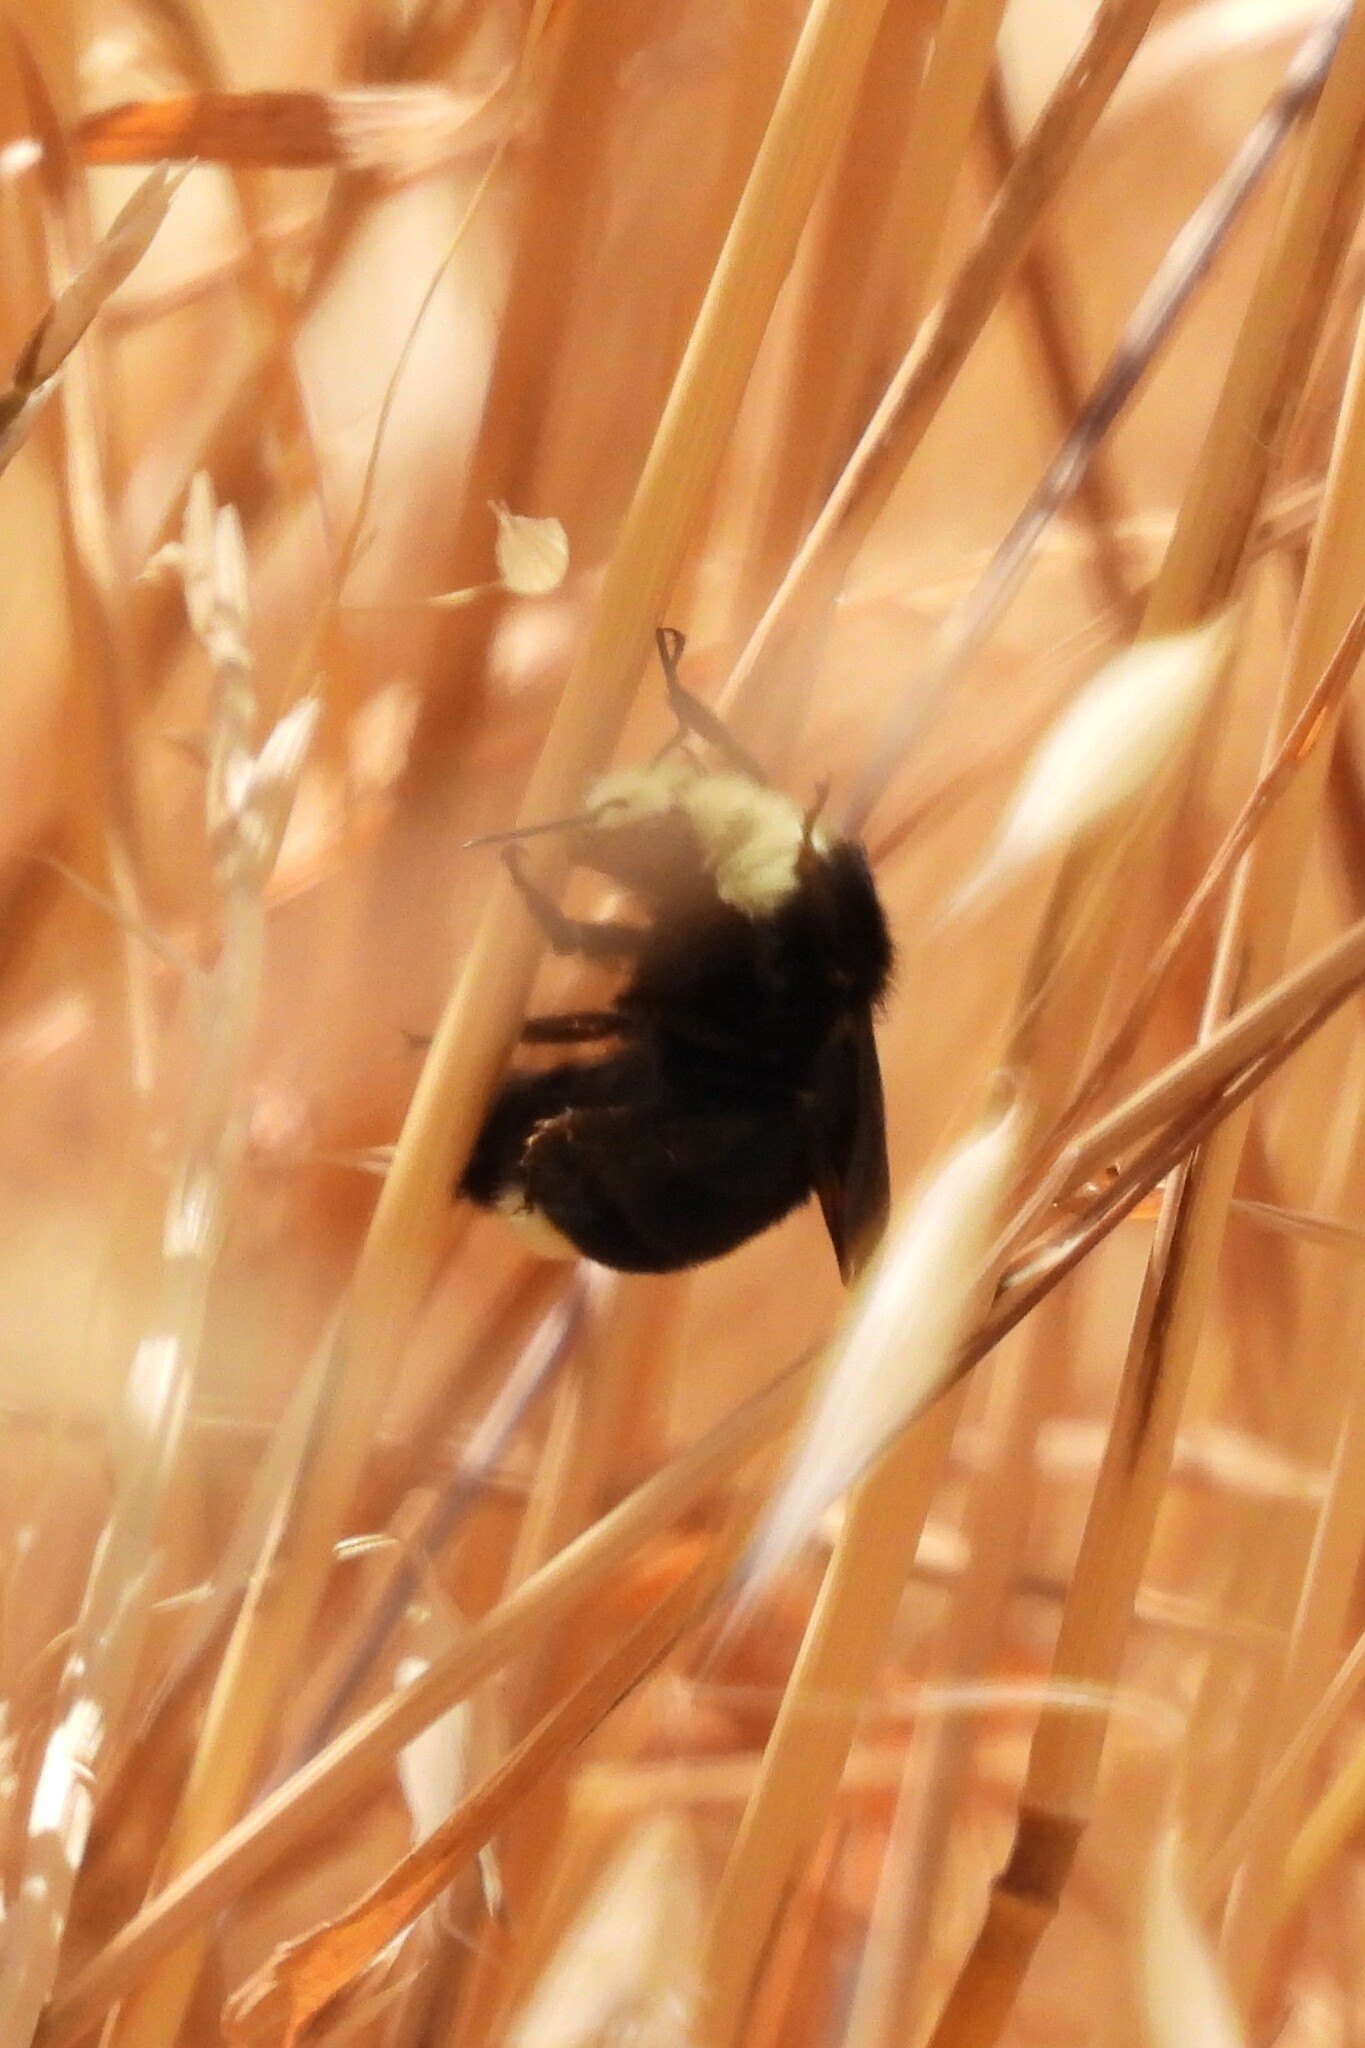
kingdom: Animalia
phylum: Arthropoda
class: Insecta
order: Hymenoptera
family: Apidae
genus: Bombus
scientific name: Bombus vosnesenskii
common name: Vosnesensky bumble bee
